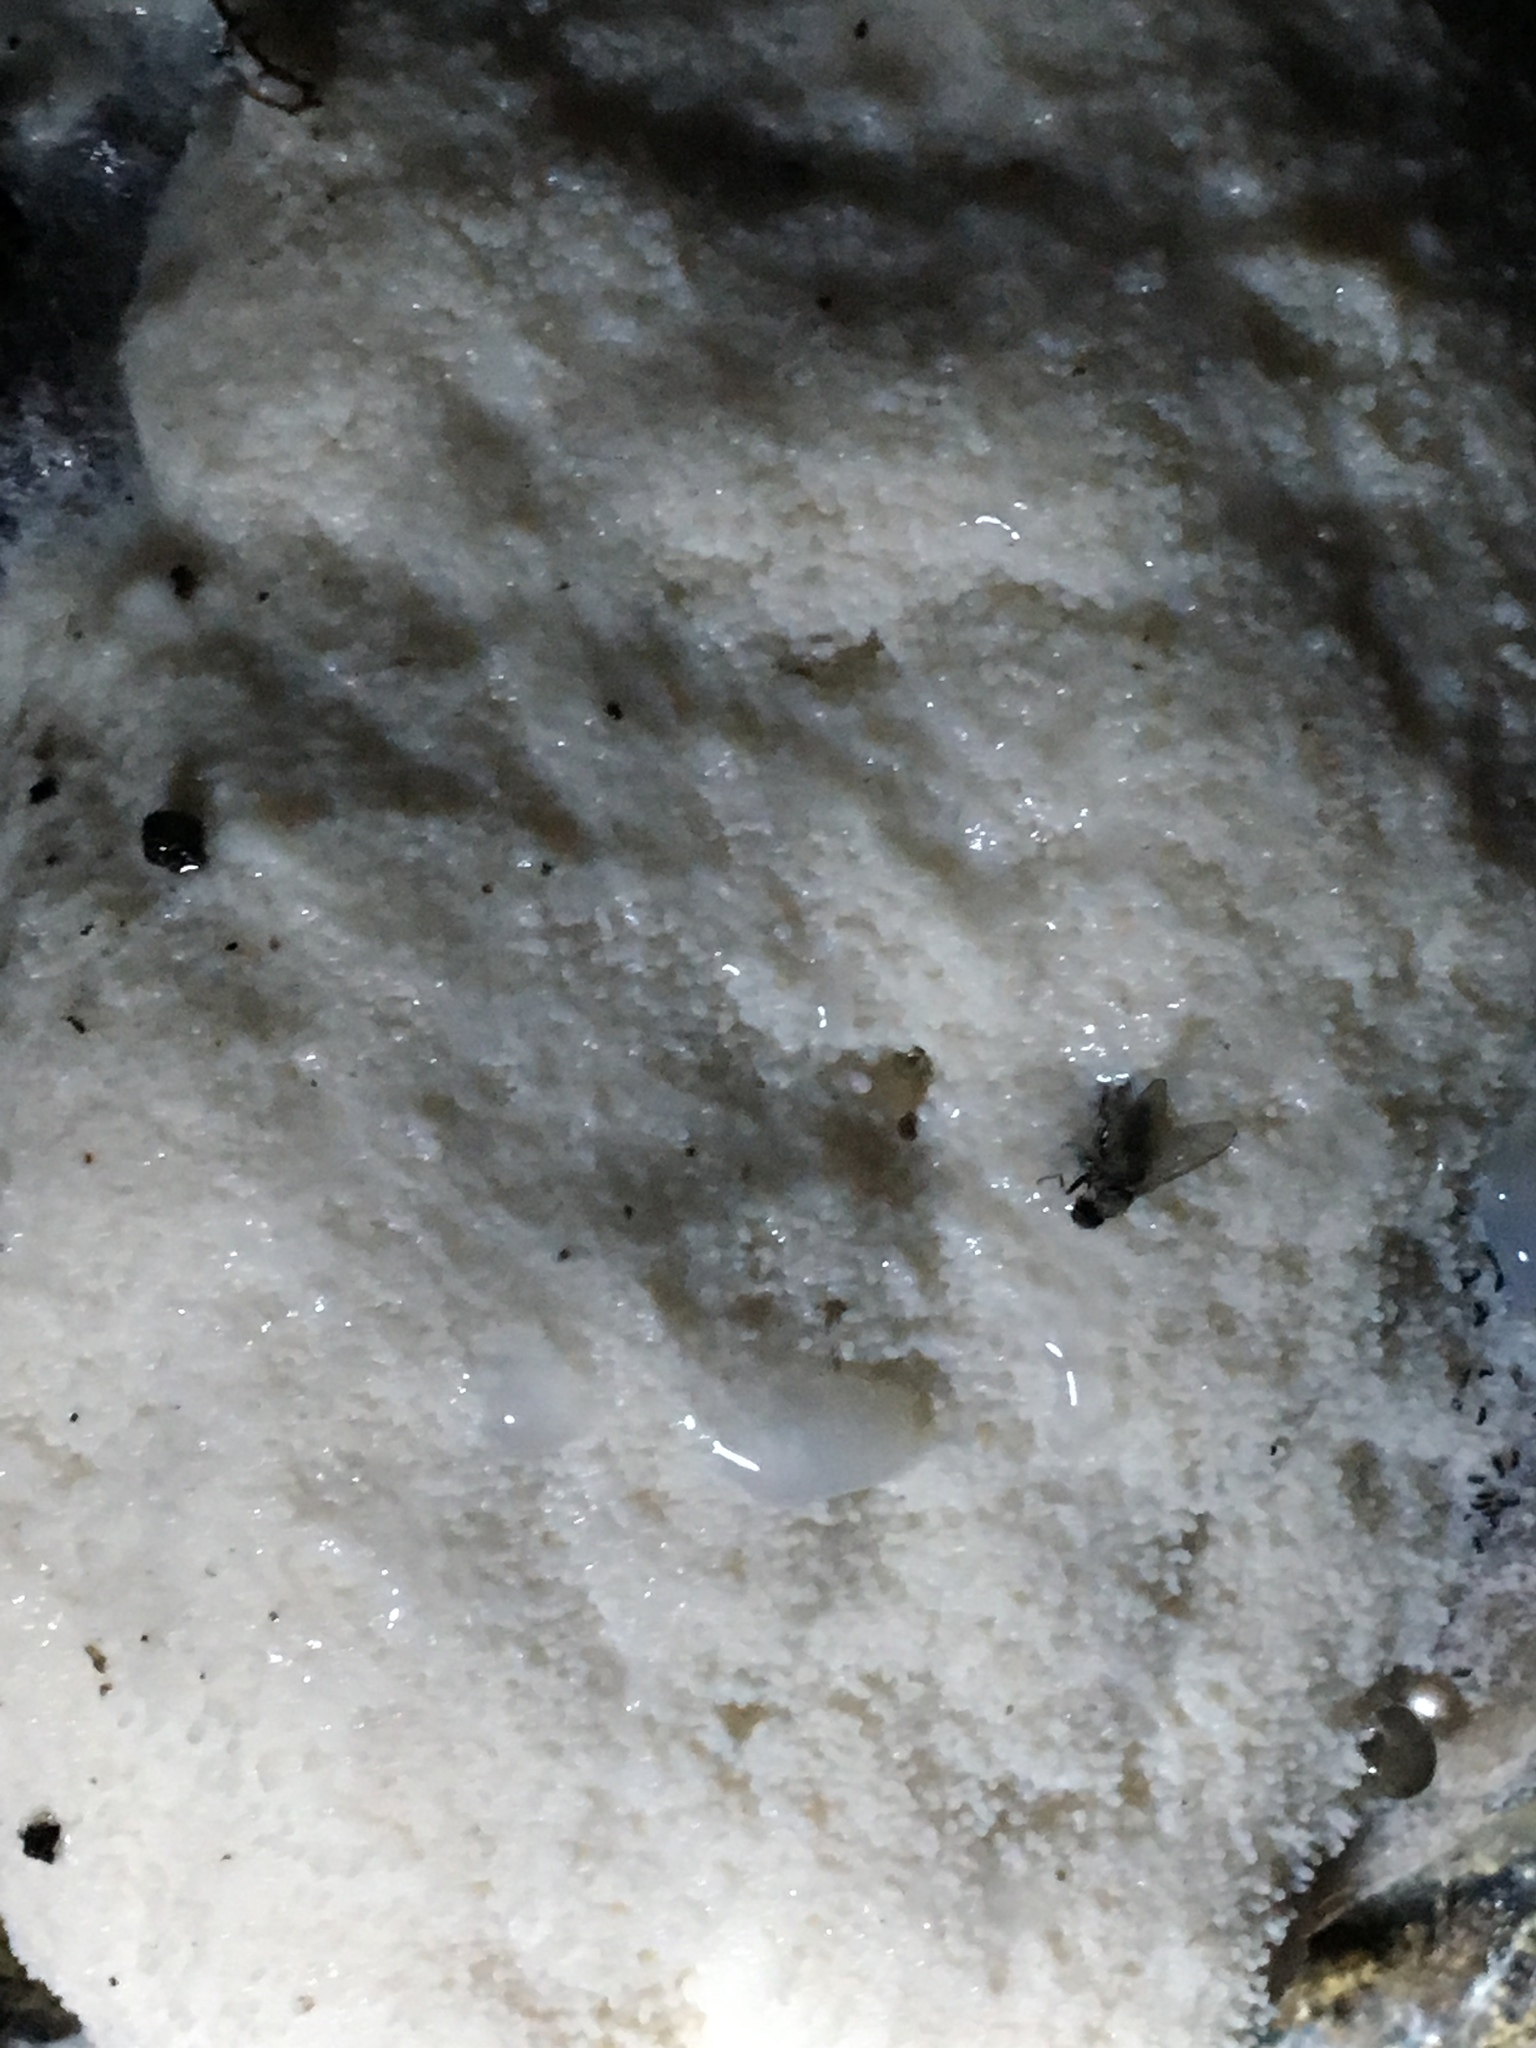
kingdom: Protozoa
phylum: Mycetozoa
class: Myxomycetes
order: Cribrariales
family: Tubiferaceae
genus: Reticularia
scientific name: Reticularia lycoperdon
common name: False puffball
